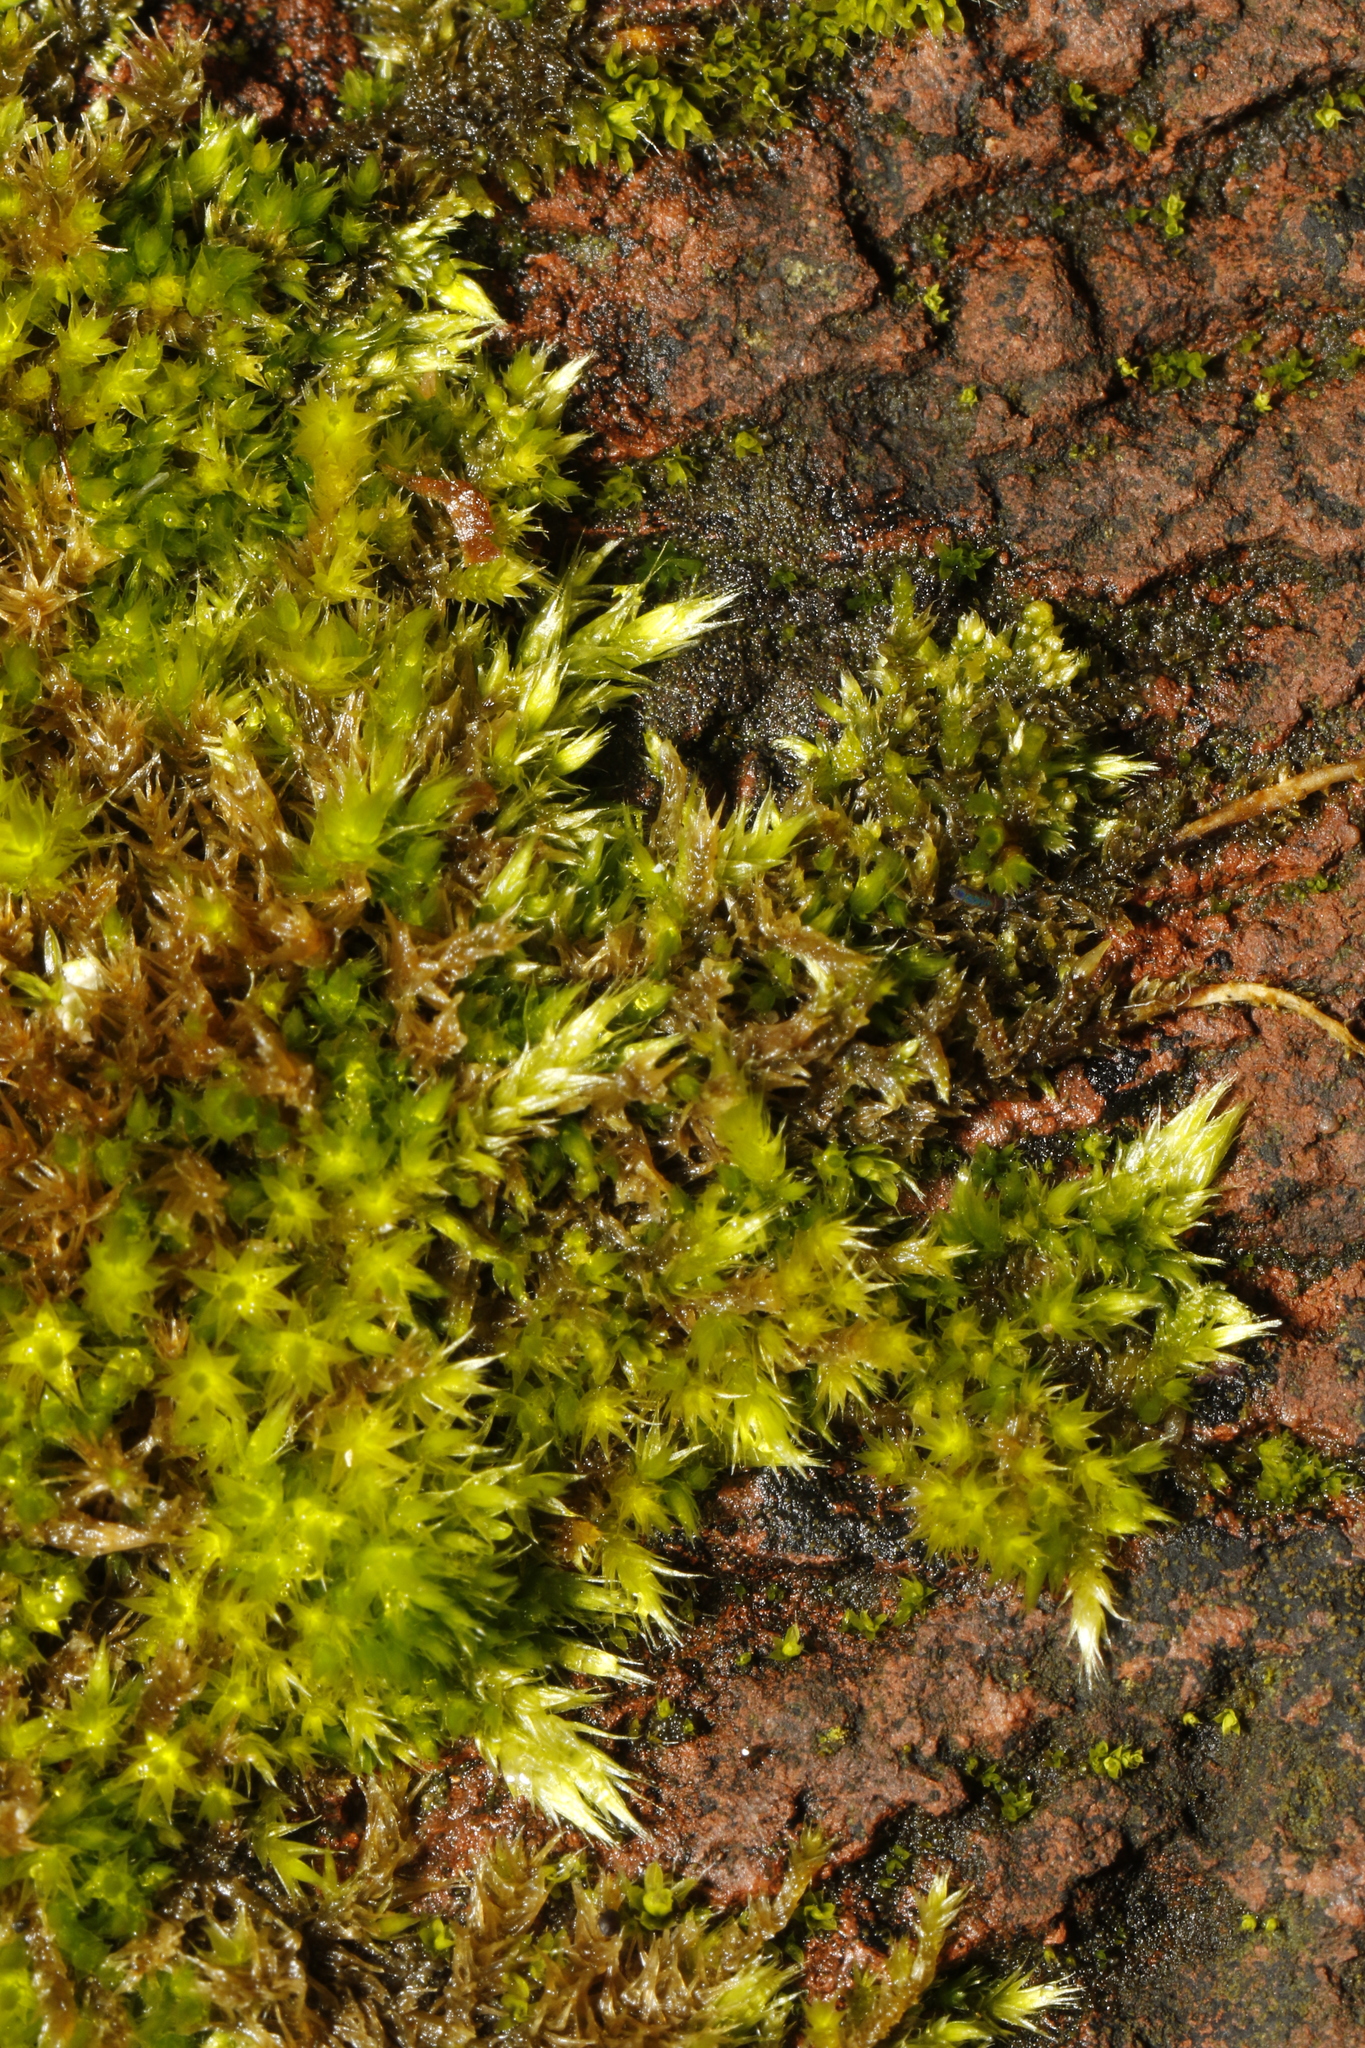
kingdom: Plantae
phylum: Bryophyta
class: Bryopsida
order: Hypnales
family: Brachytheciaceae
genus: Homalothecium
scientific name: Homalothecium sericeum
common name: Silky wall feather-moss
